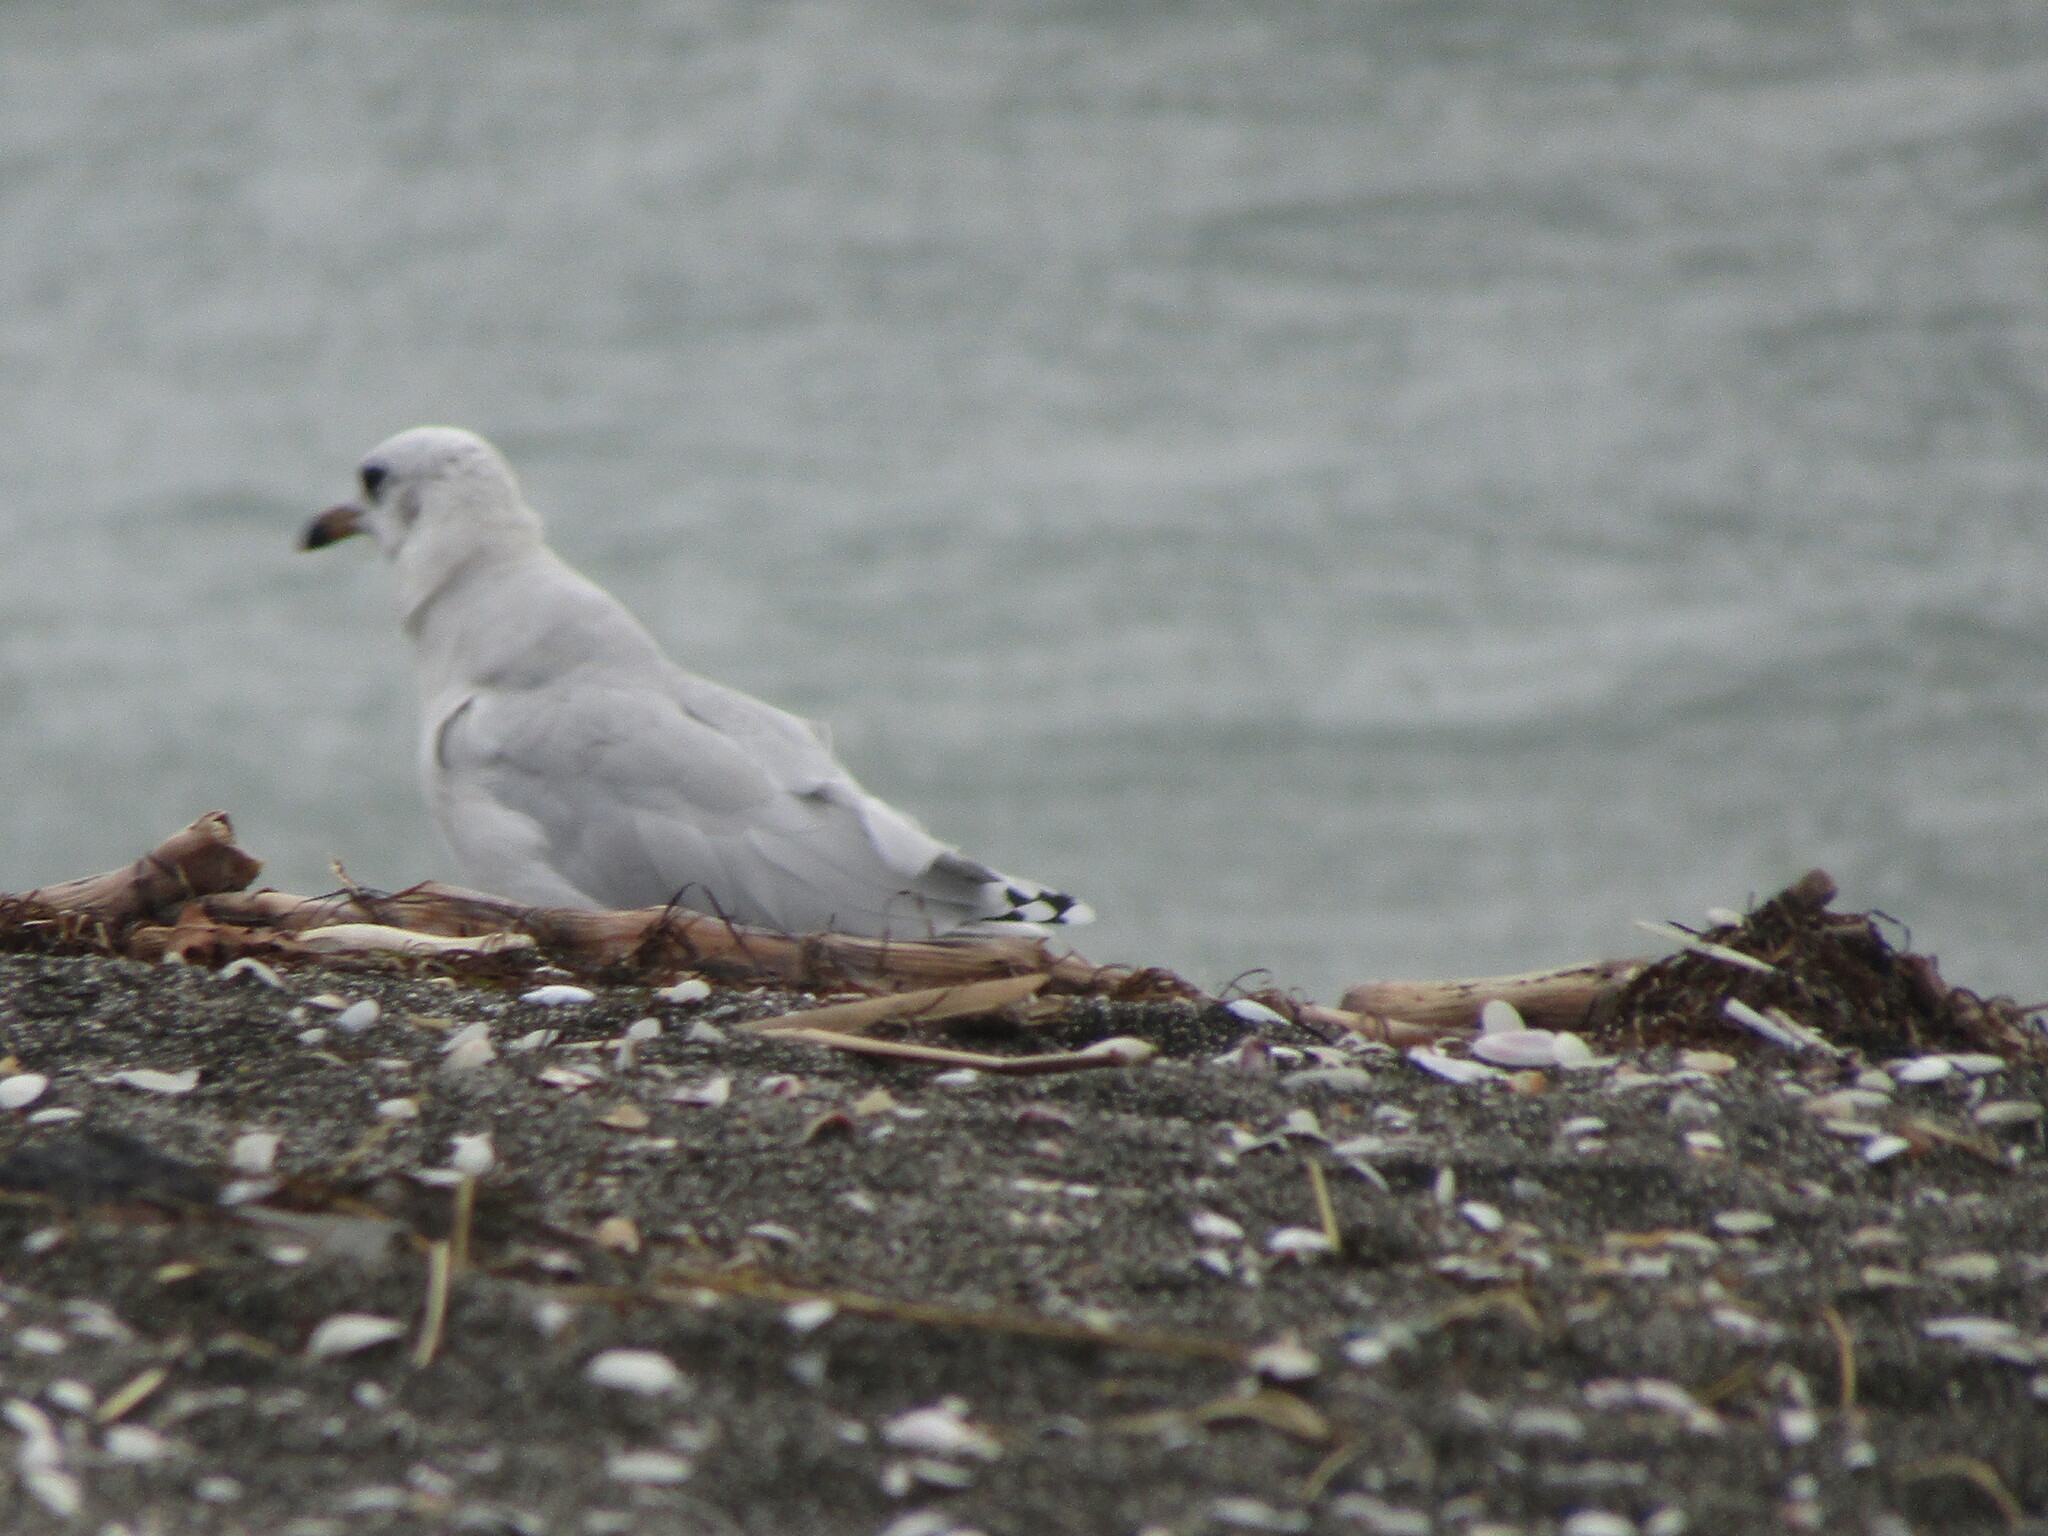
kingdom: Animalia
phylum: Chordata
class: Aves
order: Charadriiformes
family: Laridae
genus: Ichthyaetus
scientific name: Ichthyaetus melanocephalus
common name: Mediterranean gull
